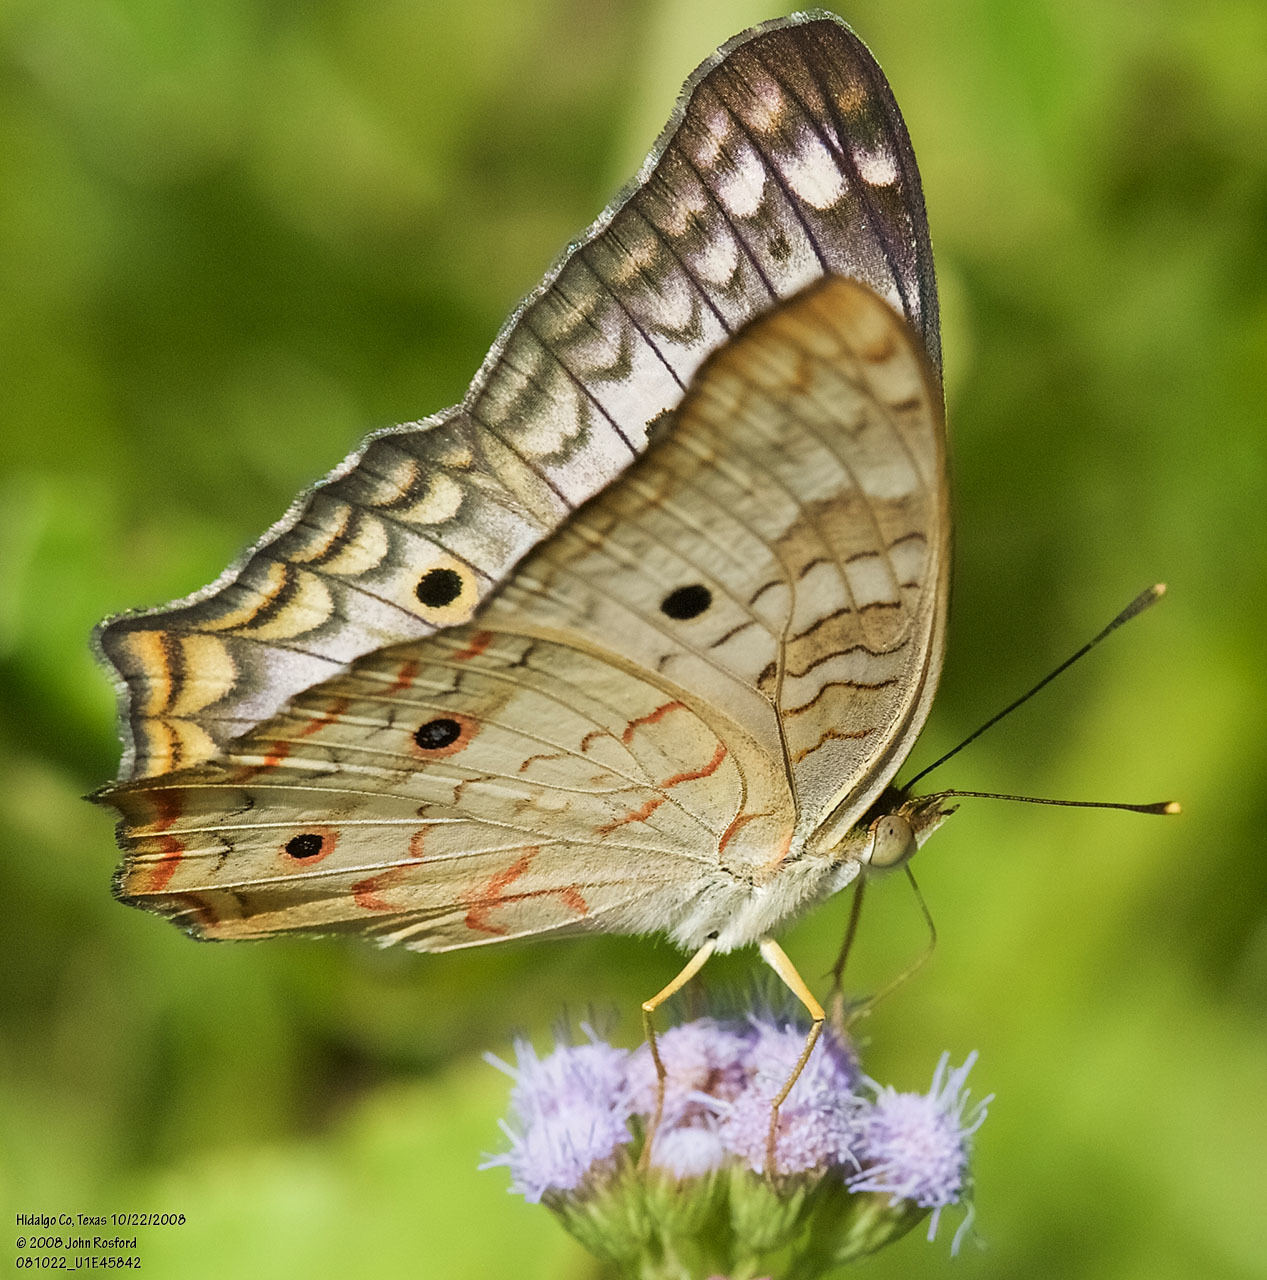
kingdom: Animalia
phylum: Arthropoda
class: Insecta
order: Lepidoptera
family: Nymphalidae
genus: Anartia
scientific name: Anartia jatrophae
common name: White peacock
